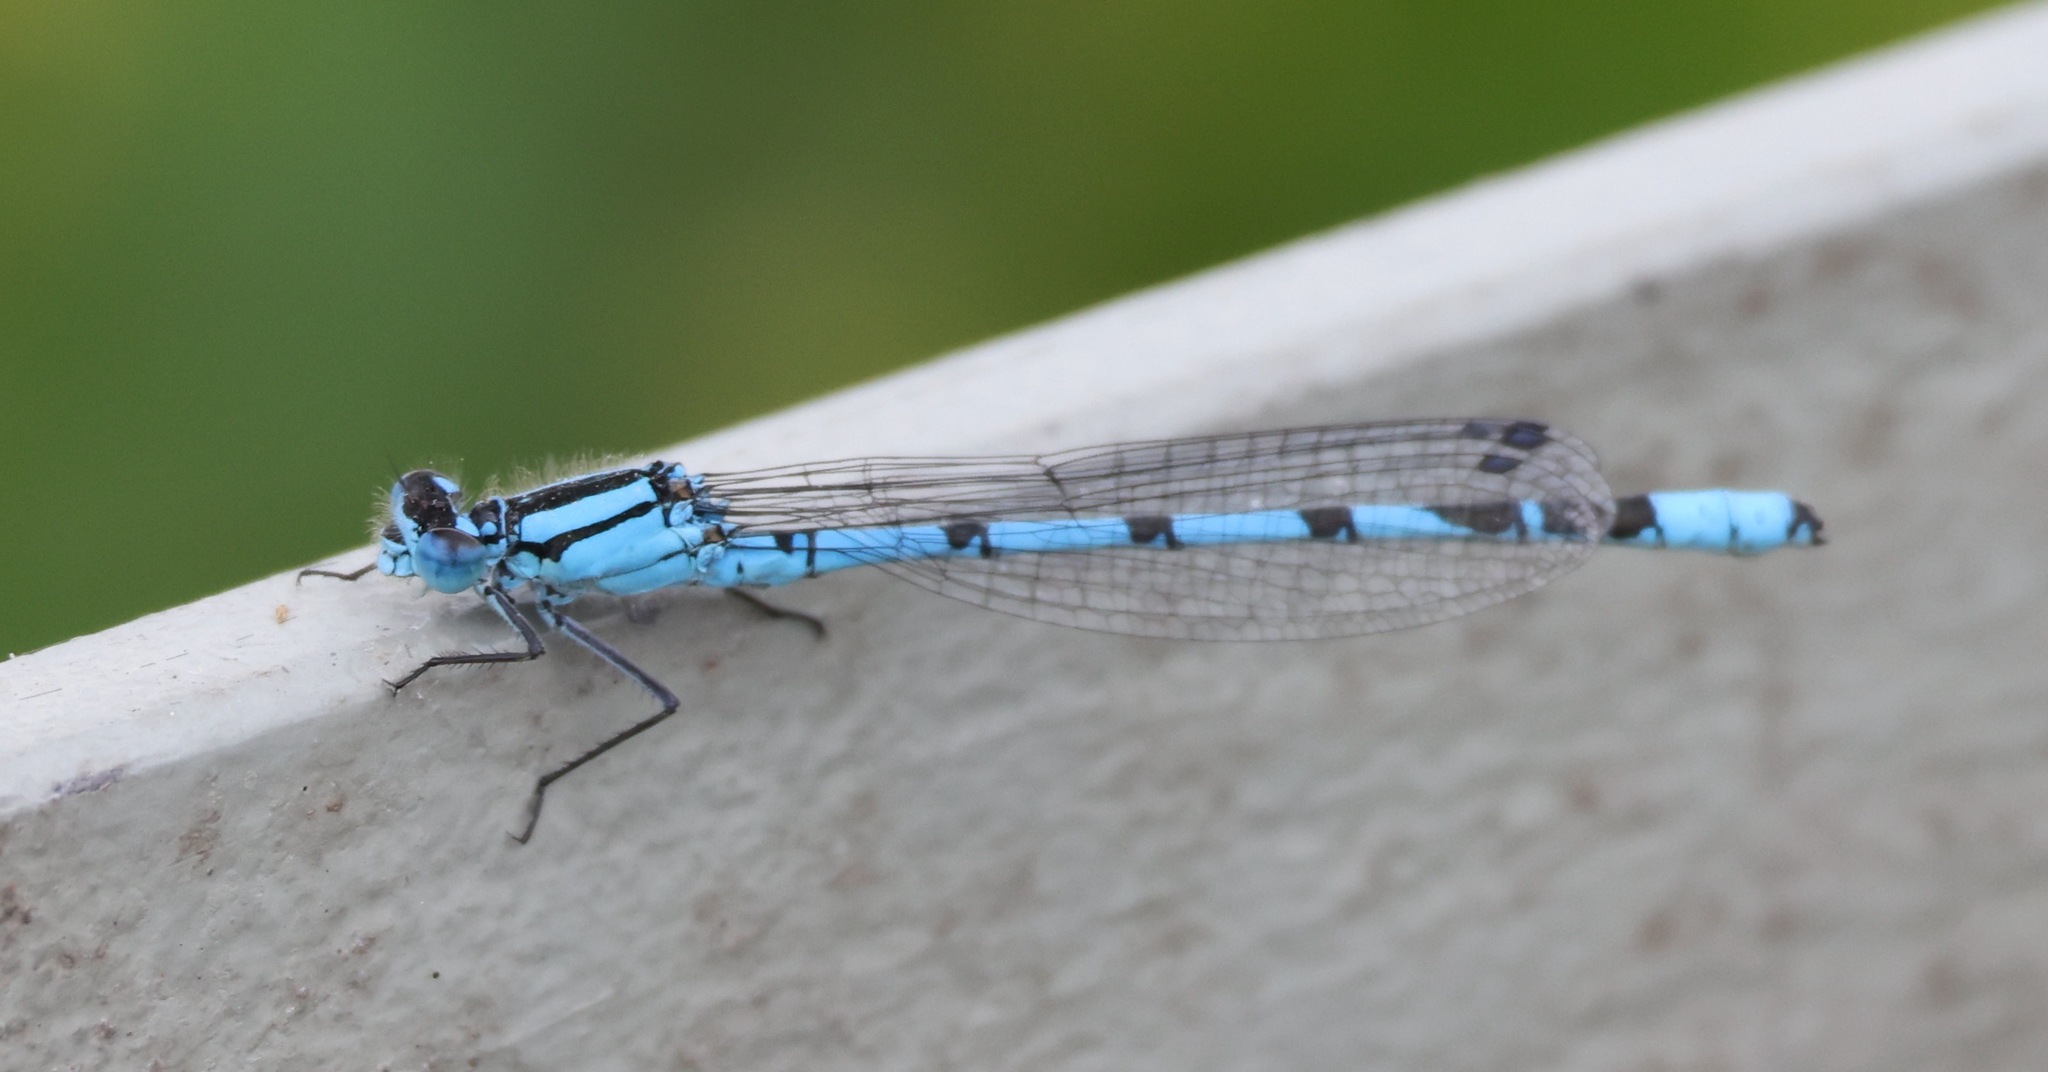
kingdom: Animalia
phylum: Arthropoda
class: Insecta
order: Odonata
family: Coenagrionidae
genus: Enallagma
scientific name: Enallagma cyathigerum
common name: Common blue damselfly
